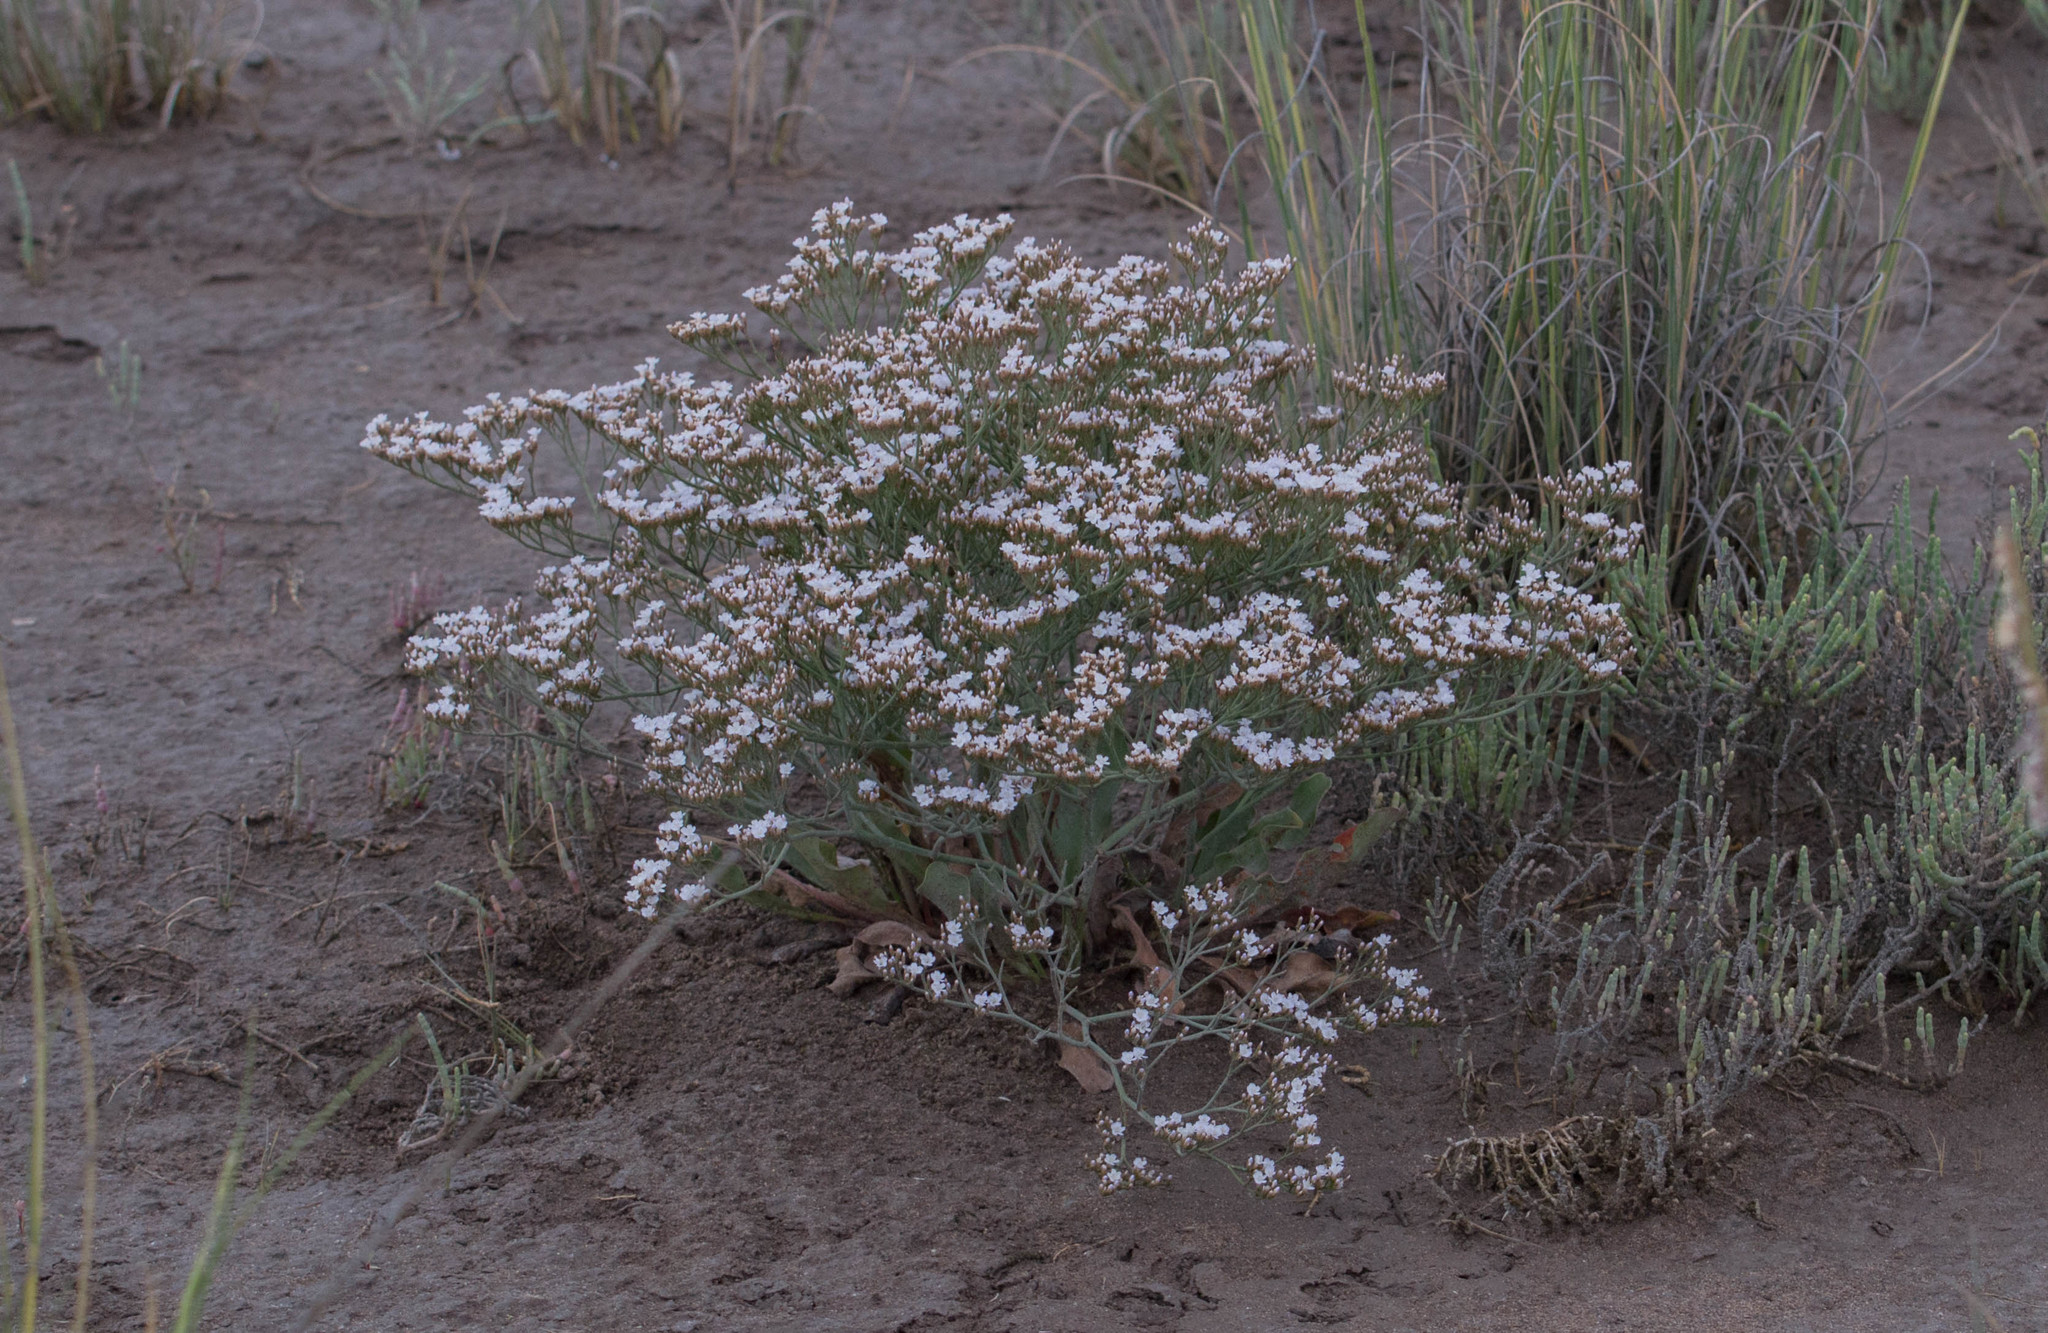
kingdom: Plantae
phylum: Tracheophyta
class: Magnoliopsida
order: Caryophyllales
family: Plumbaginaceae
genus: Limonium
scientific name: Limonium brasiliense
